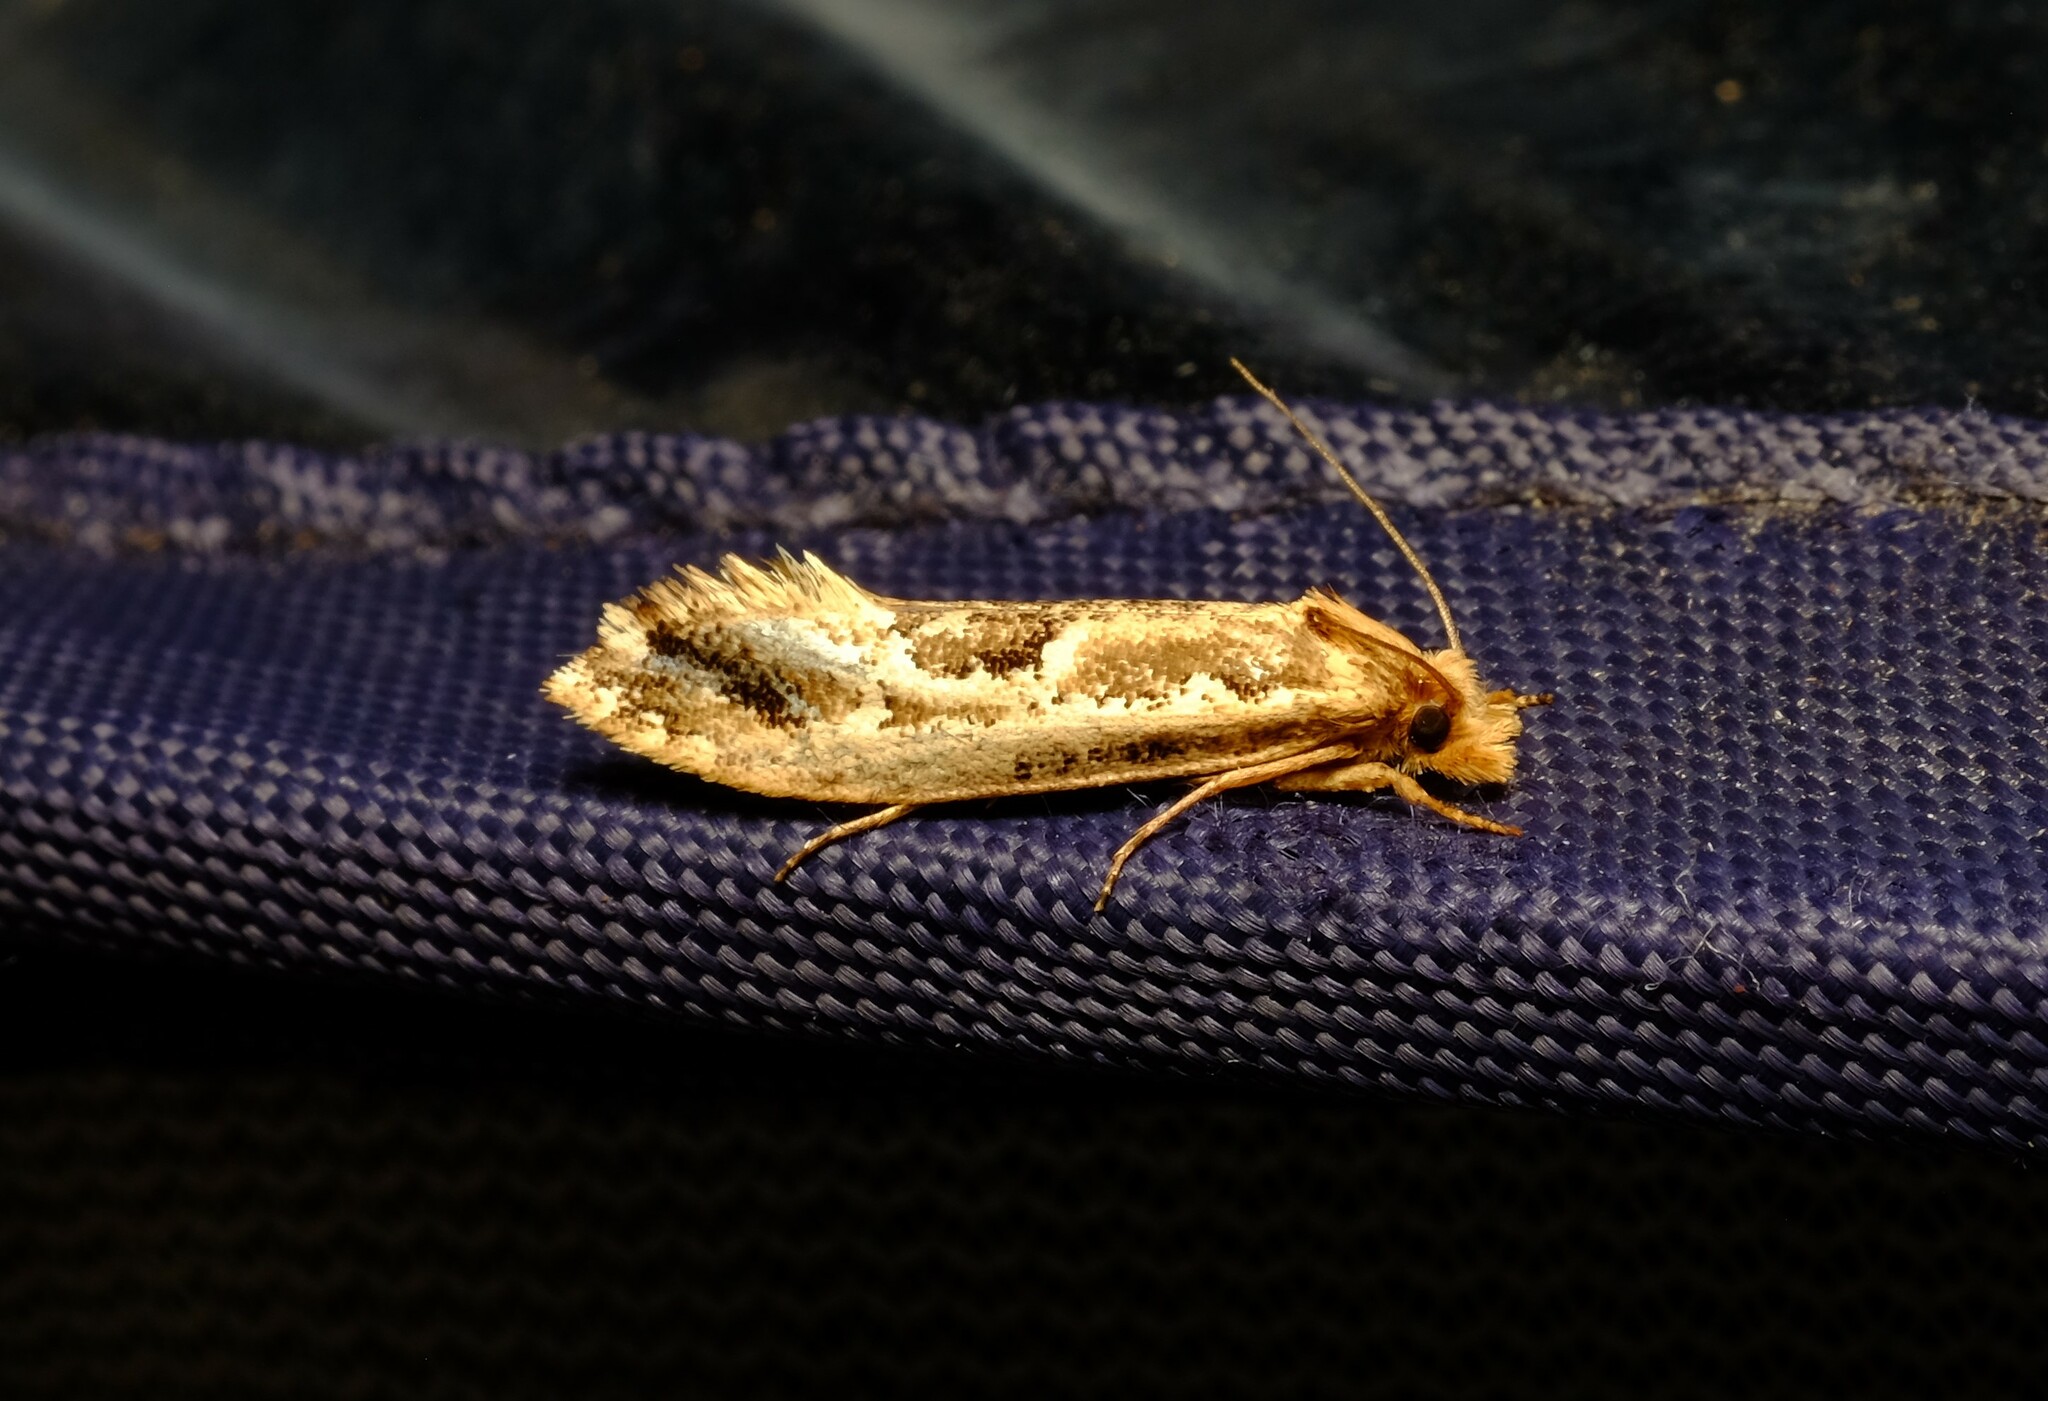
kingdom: Animalia
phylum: Arthropoda
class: Insecta
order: Lepidoptera
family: Tineidae
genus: Moerarchis
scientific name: Moerarchis inconcisella
